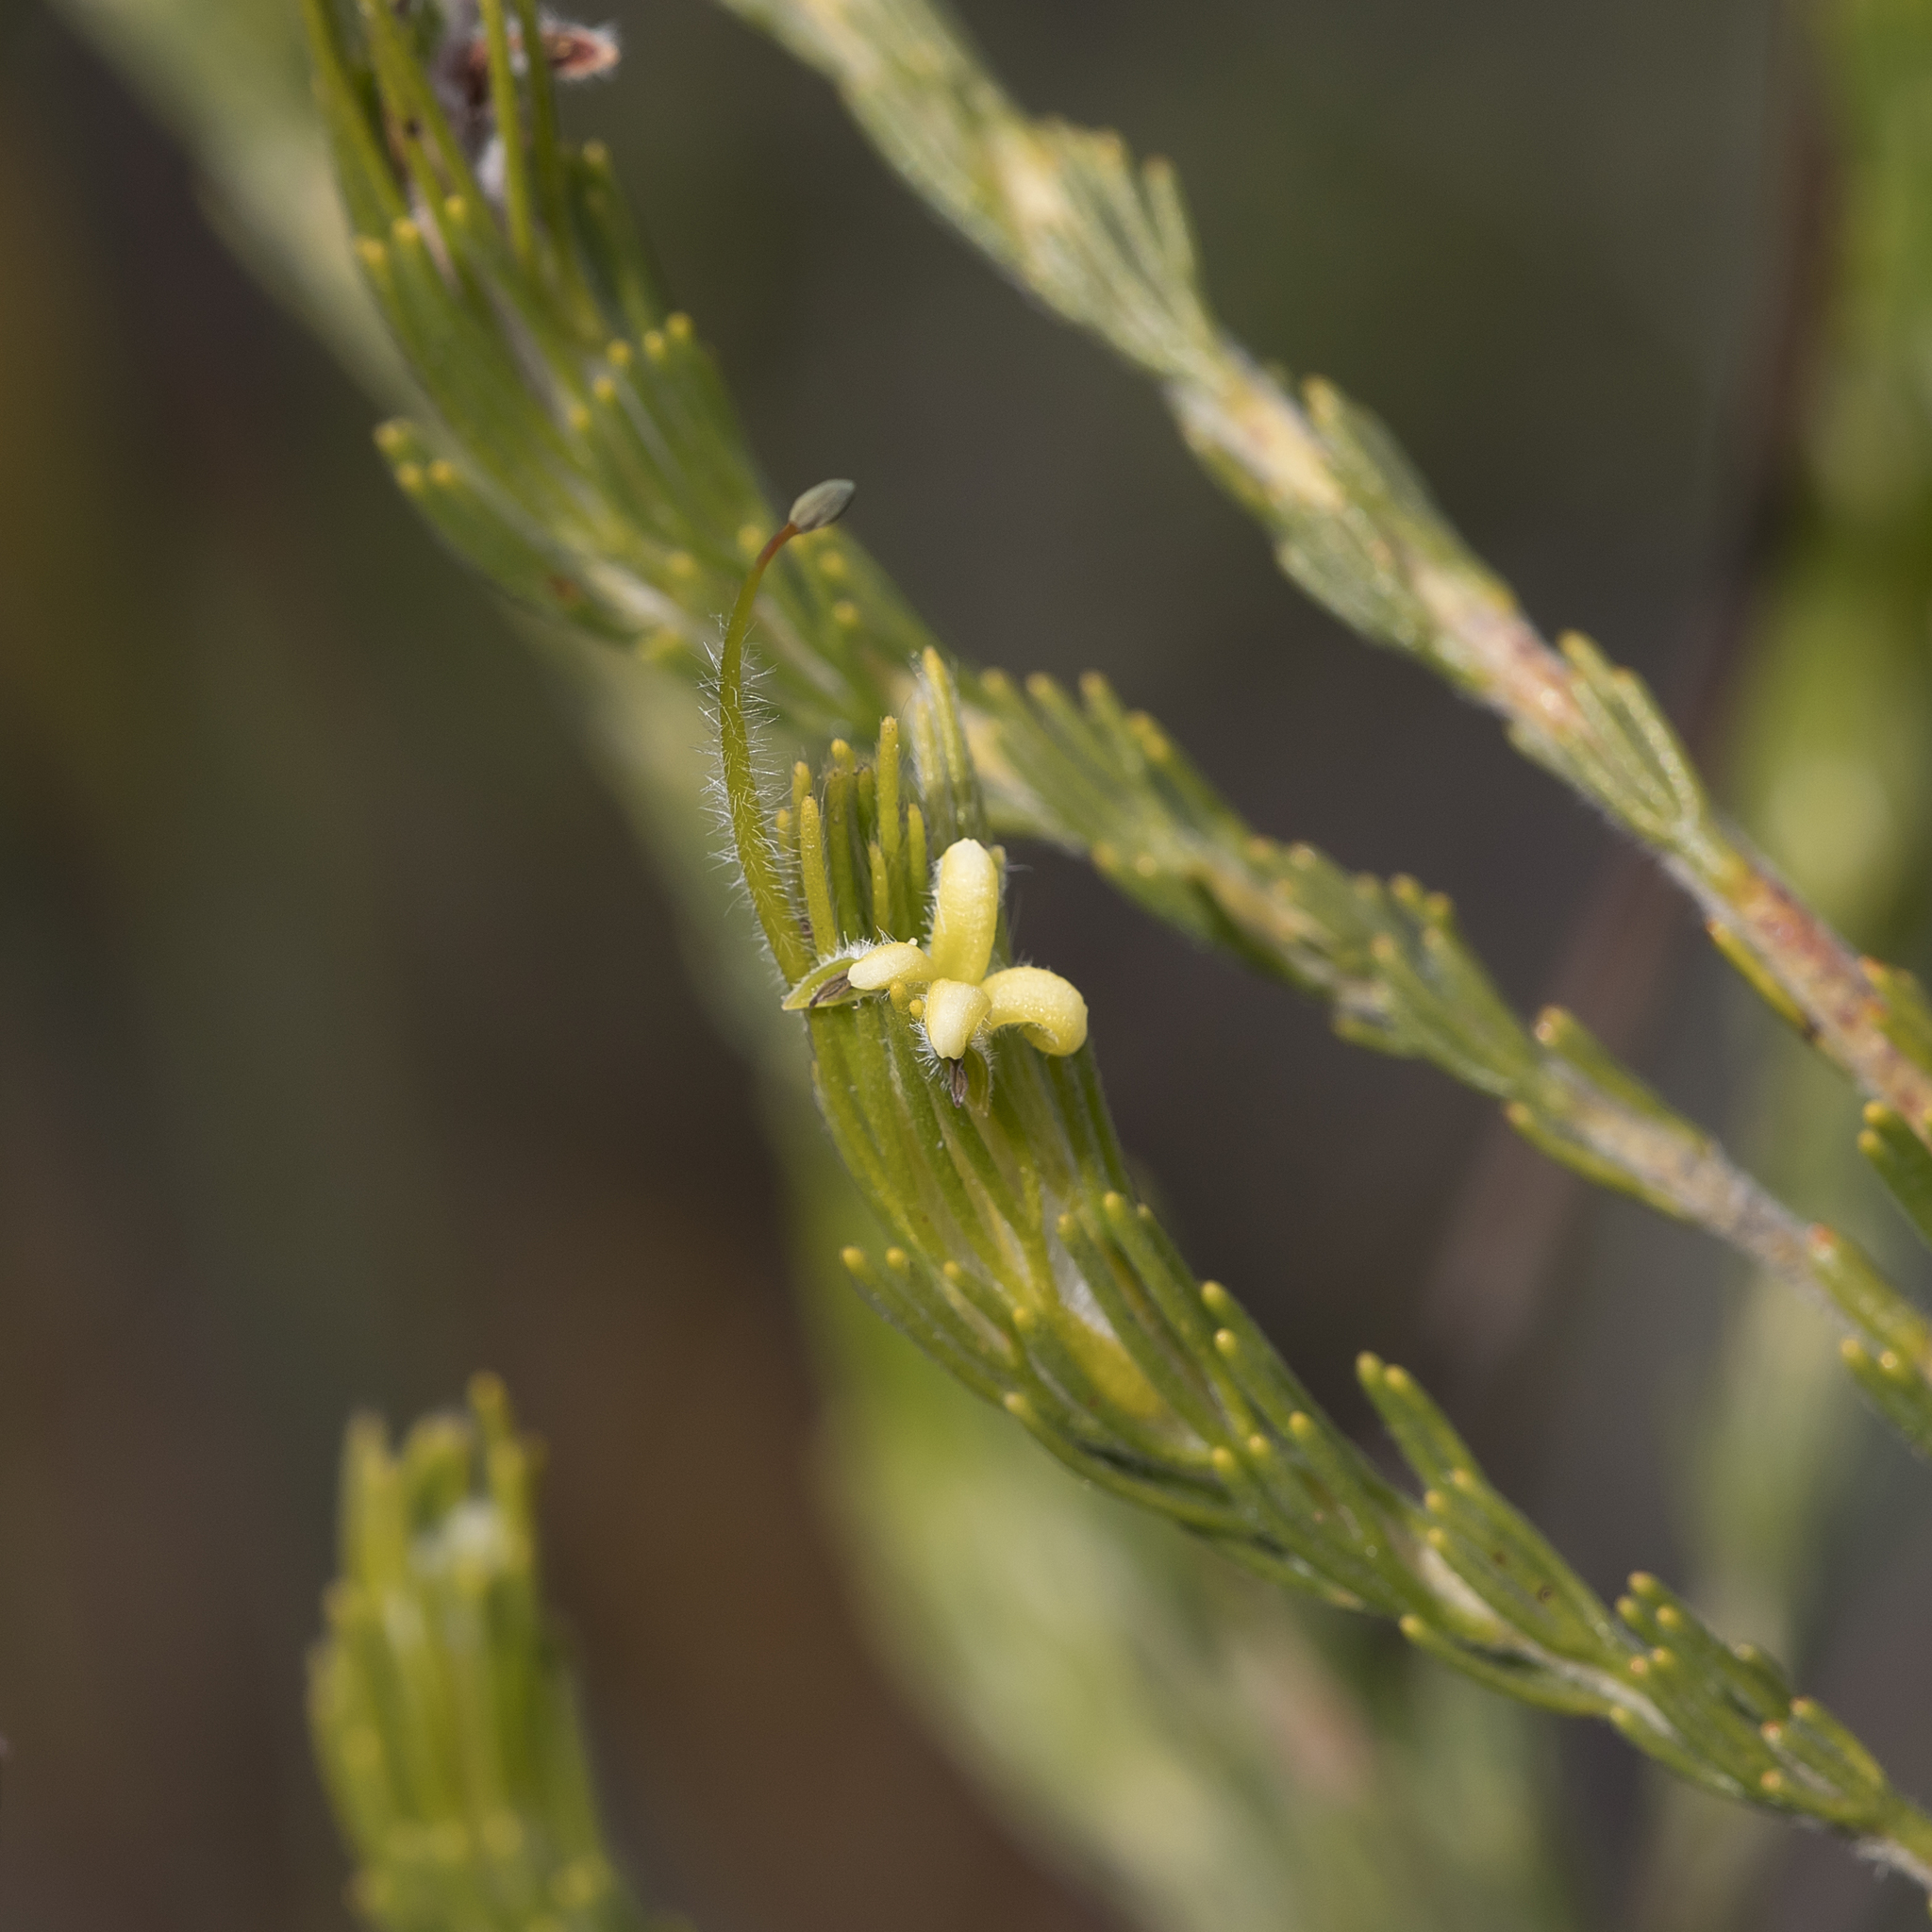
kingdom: Plantae
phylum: Tracheophyta
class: Magnoliopsida
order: Proteales
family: Proteaceae
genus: Adenanthos
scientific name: Adenanthos terminalis
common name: Yellow gland-flower
